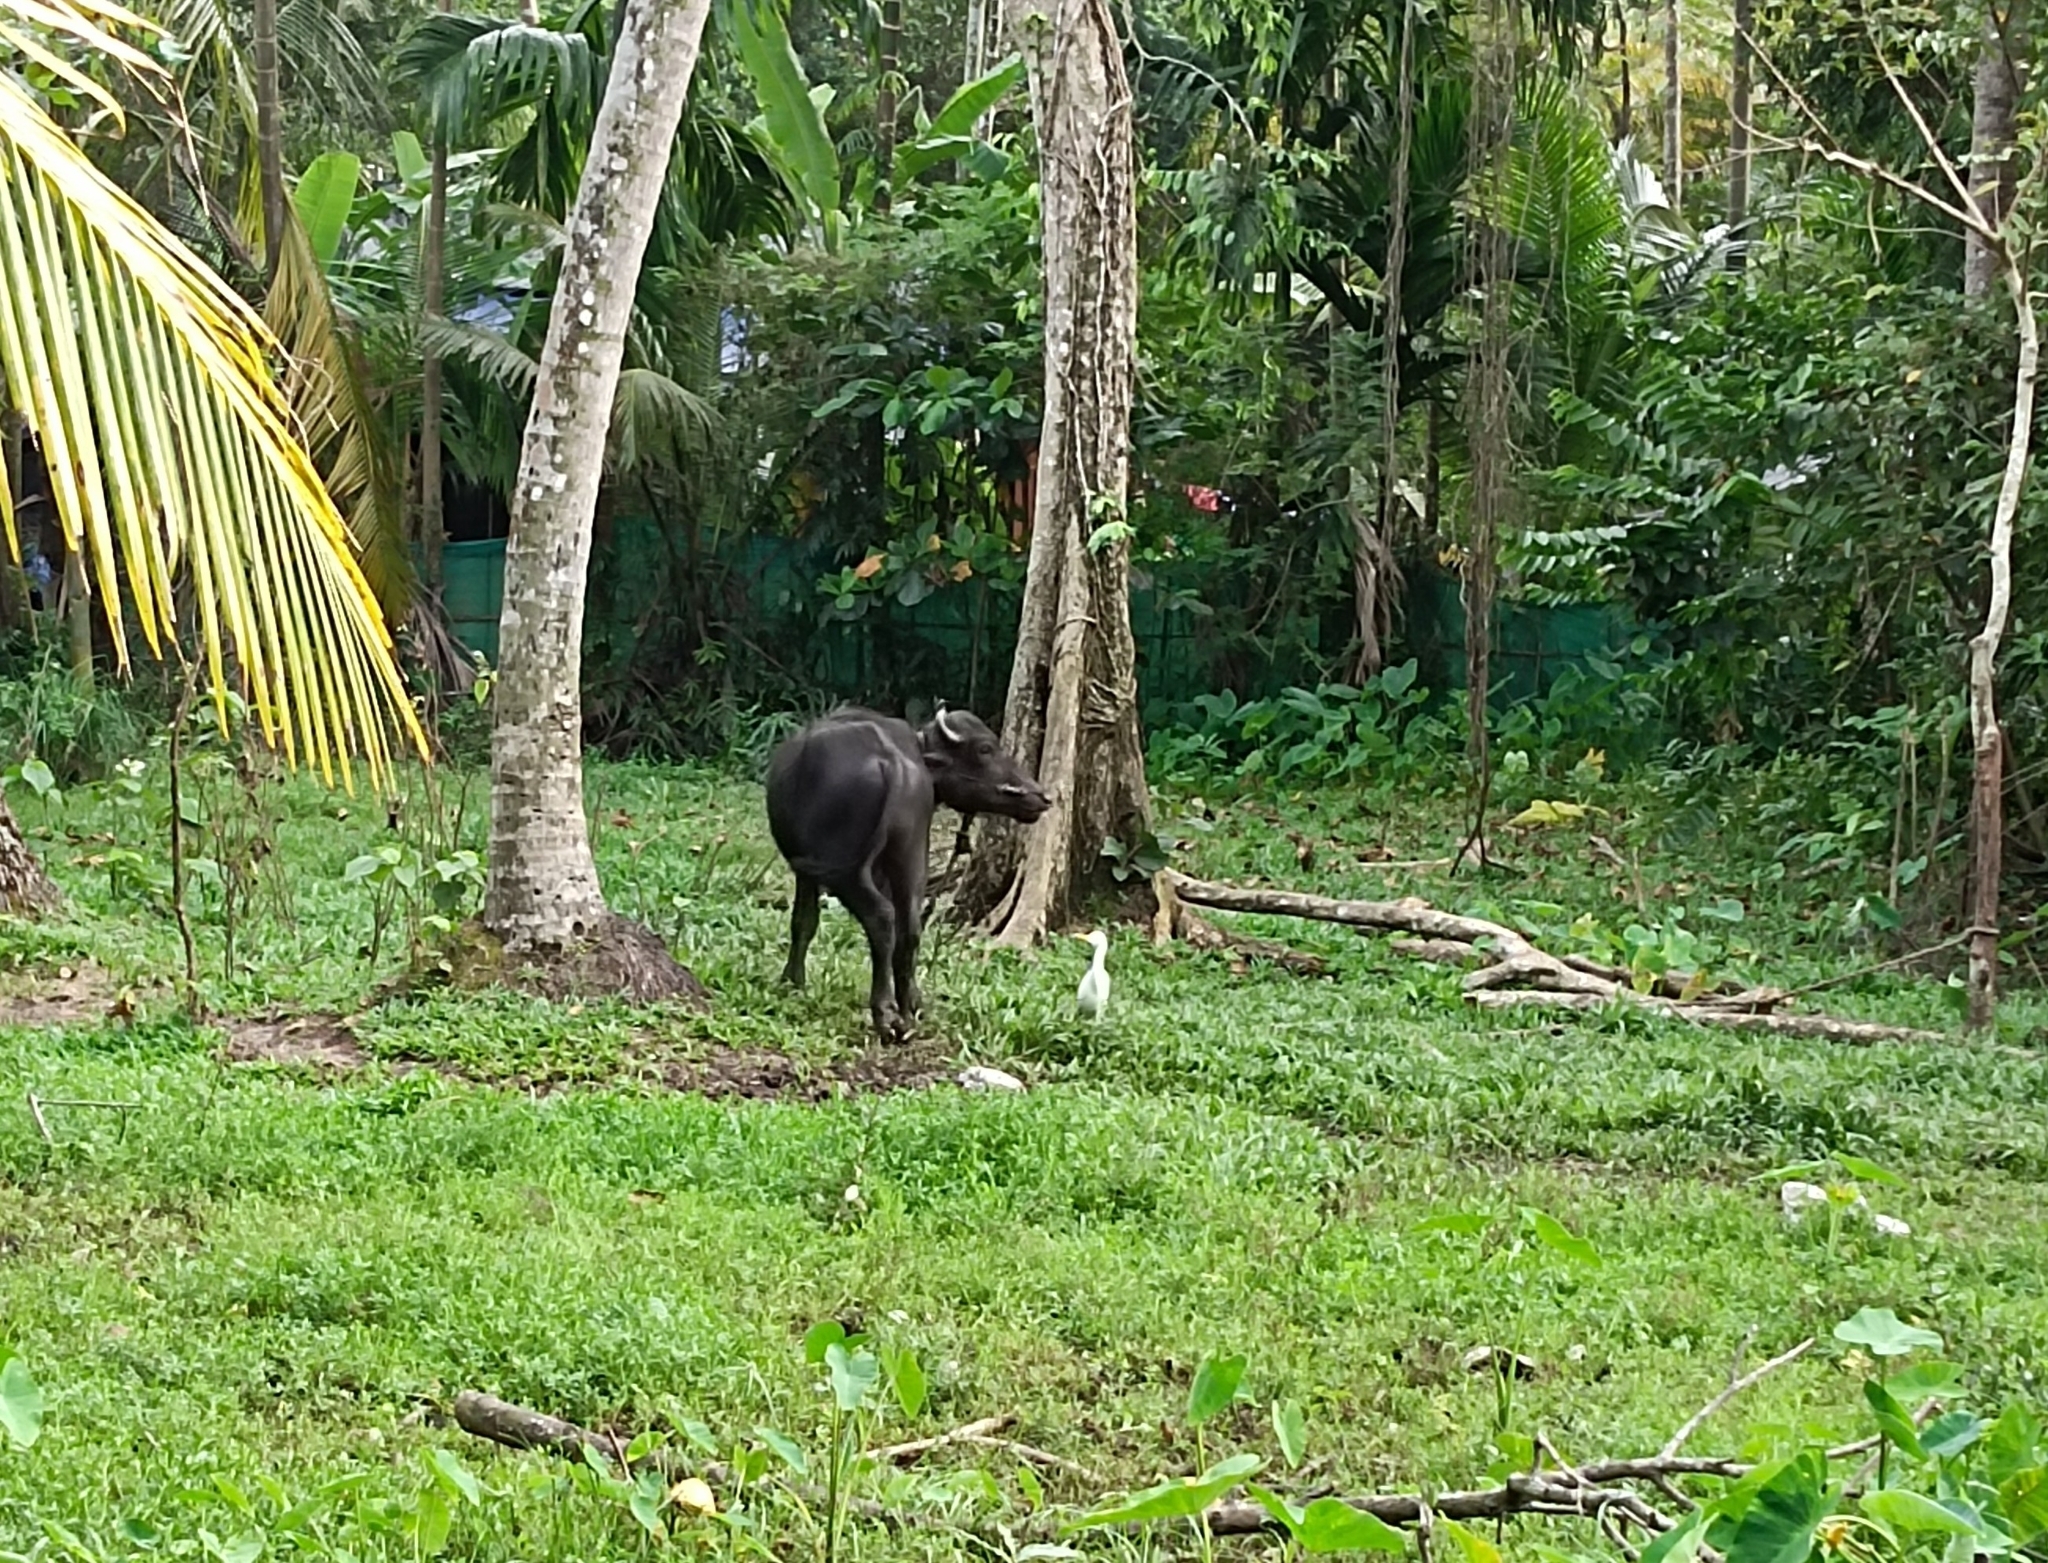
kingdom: Animalia
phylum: Chordata
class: Aves
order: Pelecaniformes
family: Ardeidae
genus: Bubulcus
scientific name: Bubulcus coromandus
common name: Eastern cattle egret
